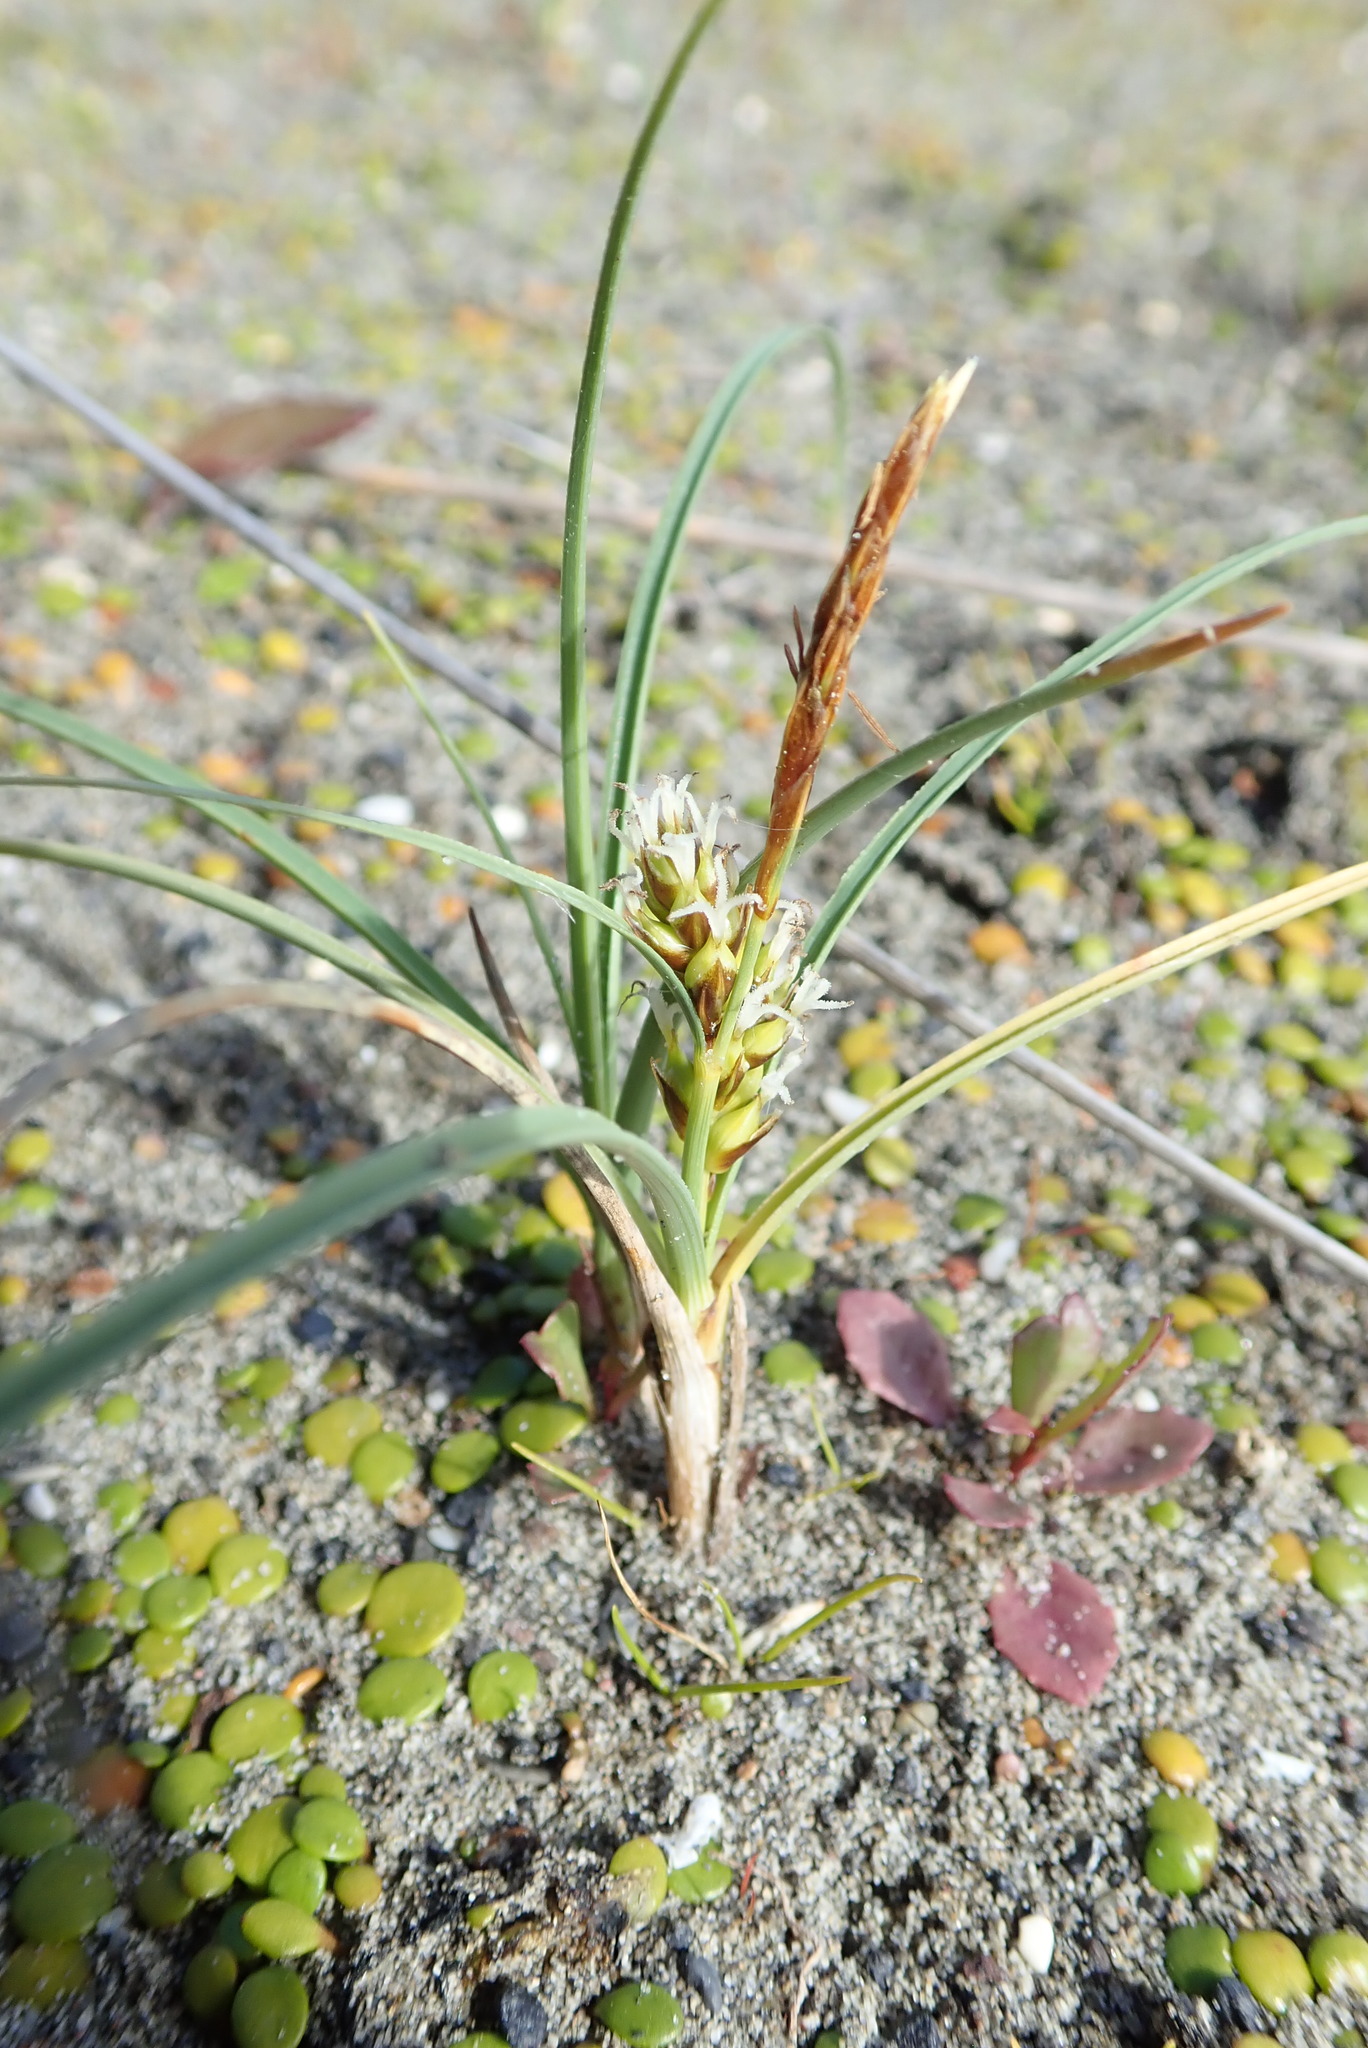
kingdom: Plantae
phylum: Tracheophyta
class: Liliopsida
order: Poales
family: Cyperaceae
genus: Carex
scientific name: Carex pumila
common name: Dwarf sedge
